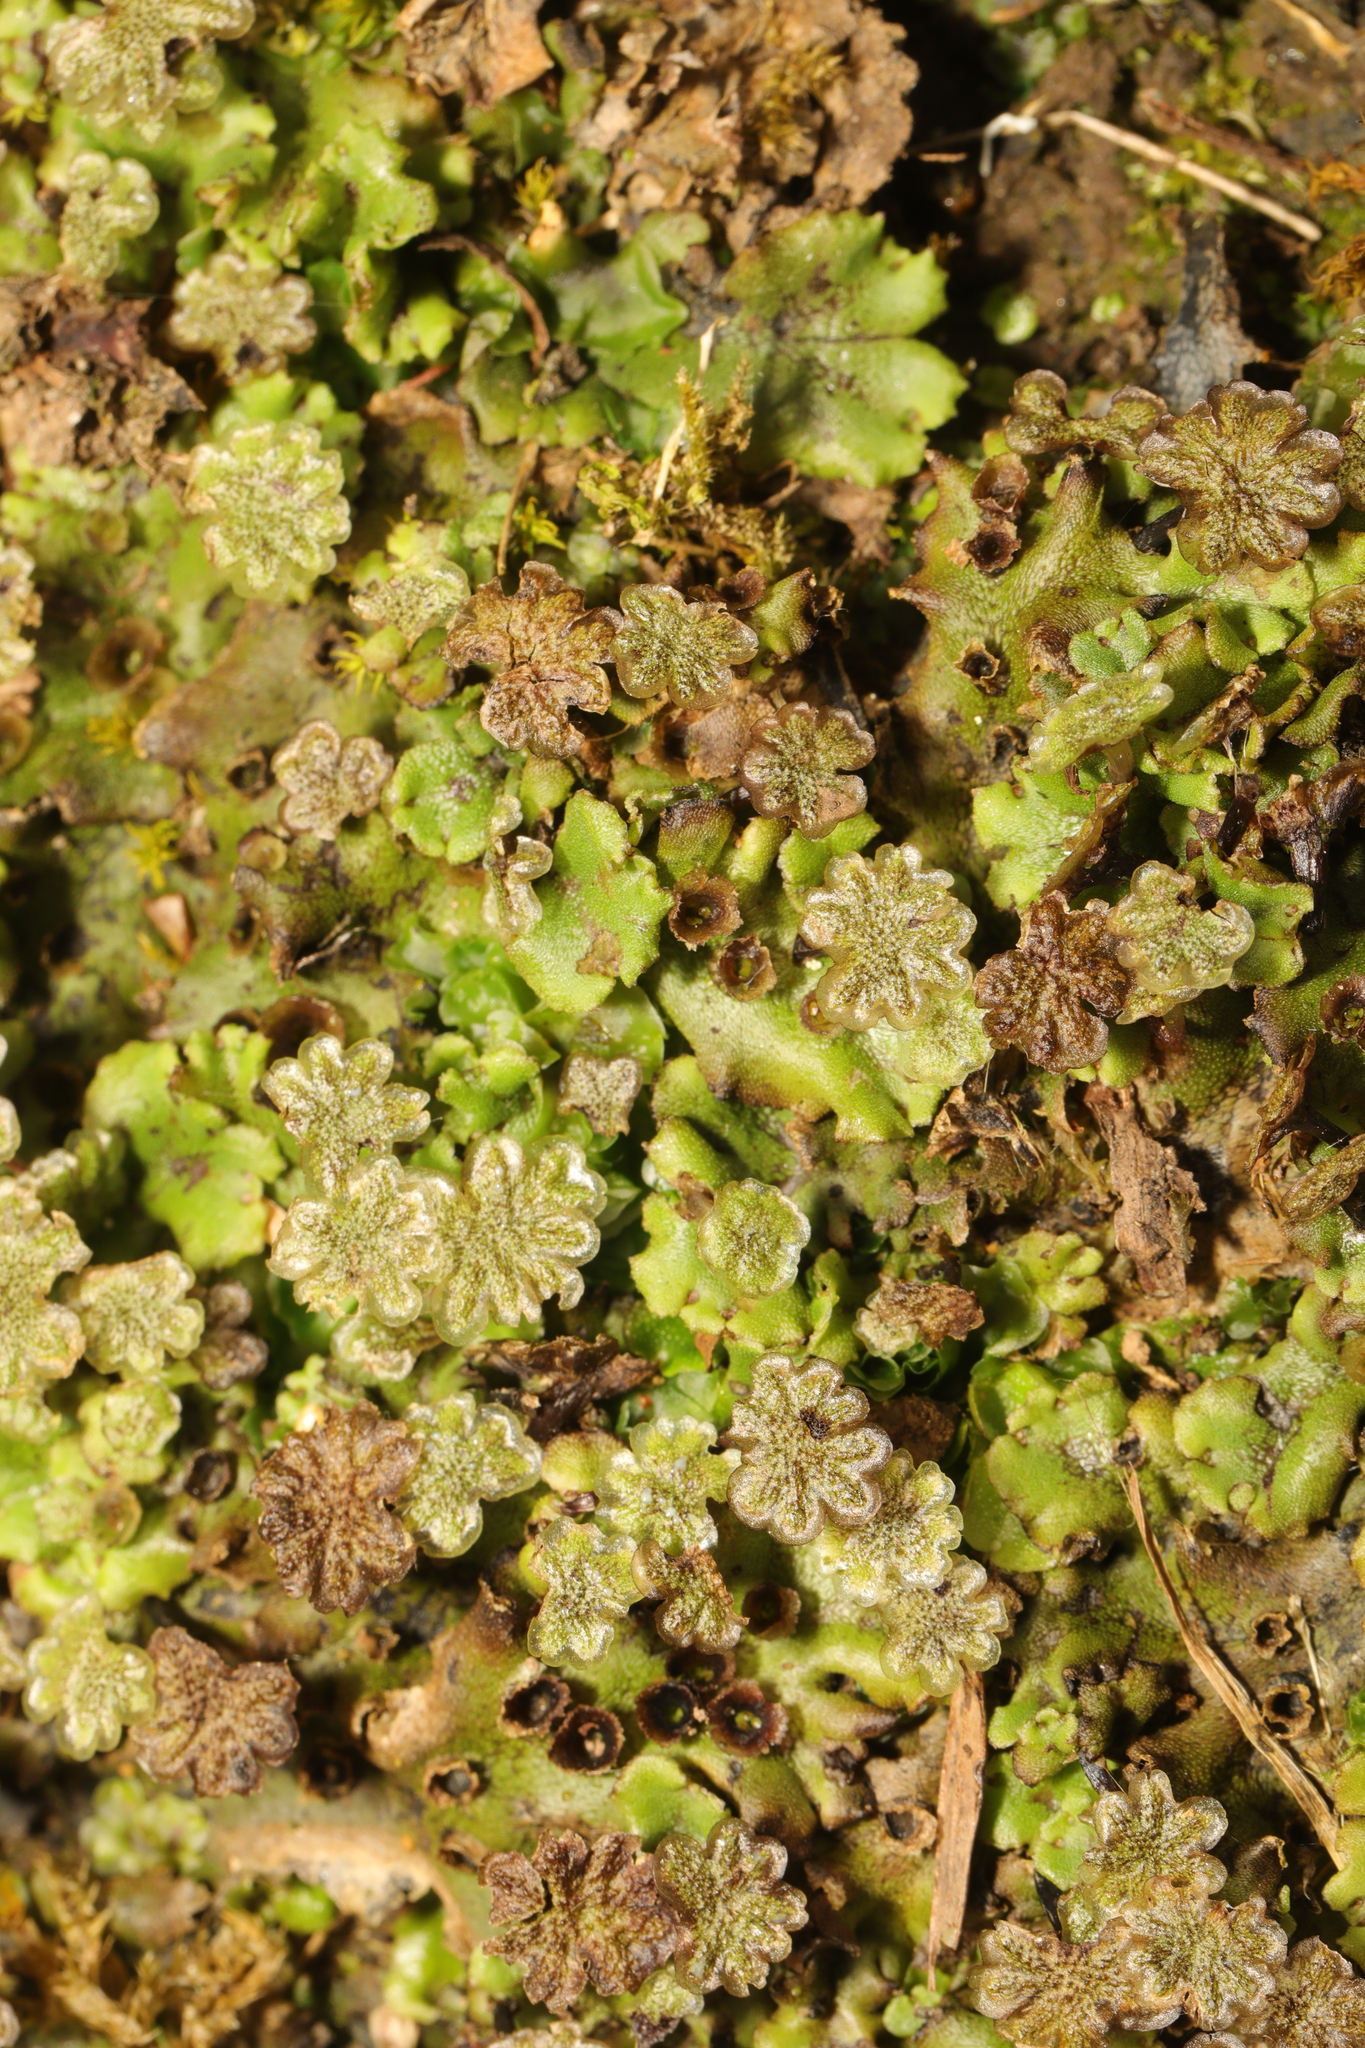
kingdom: Plantae
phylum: Marchantiophyta
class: Marchantiopsida
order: Marchantiales
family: Marchantiaceae
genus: Marchantia
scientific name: Marchantia polymorpha
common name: Common liverwort
